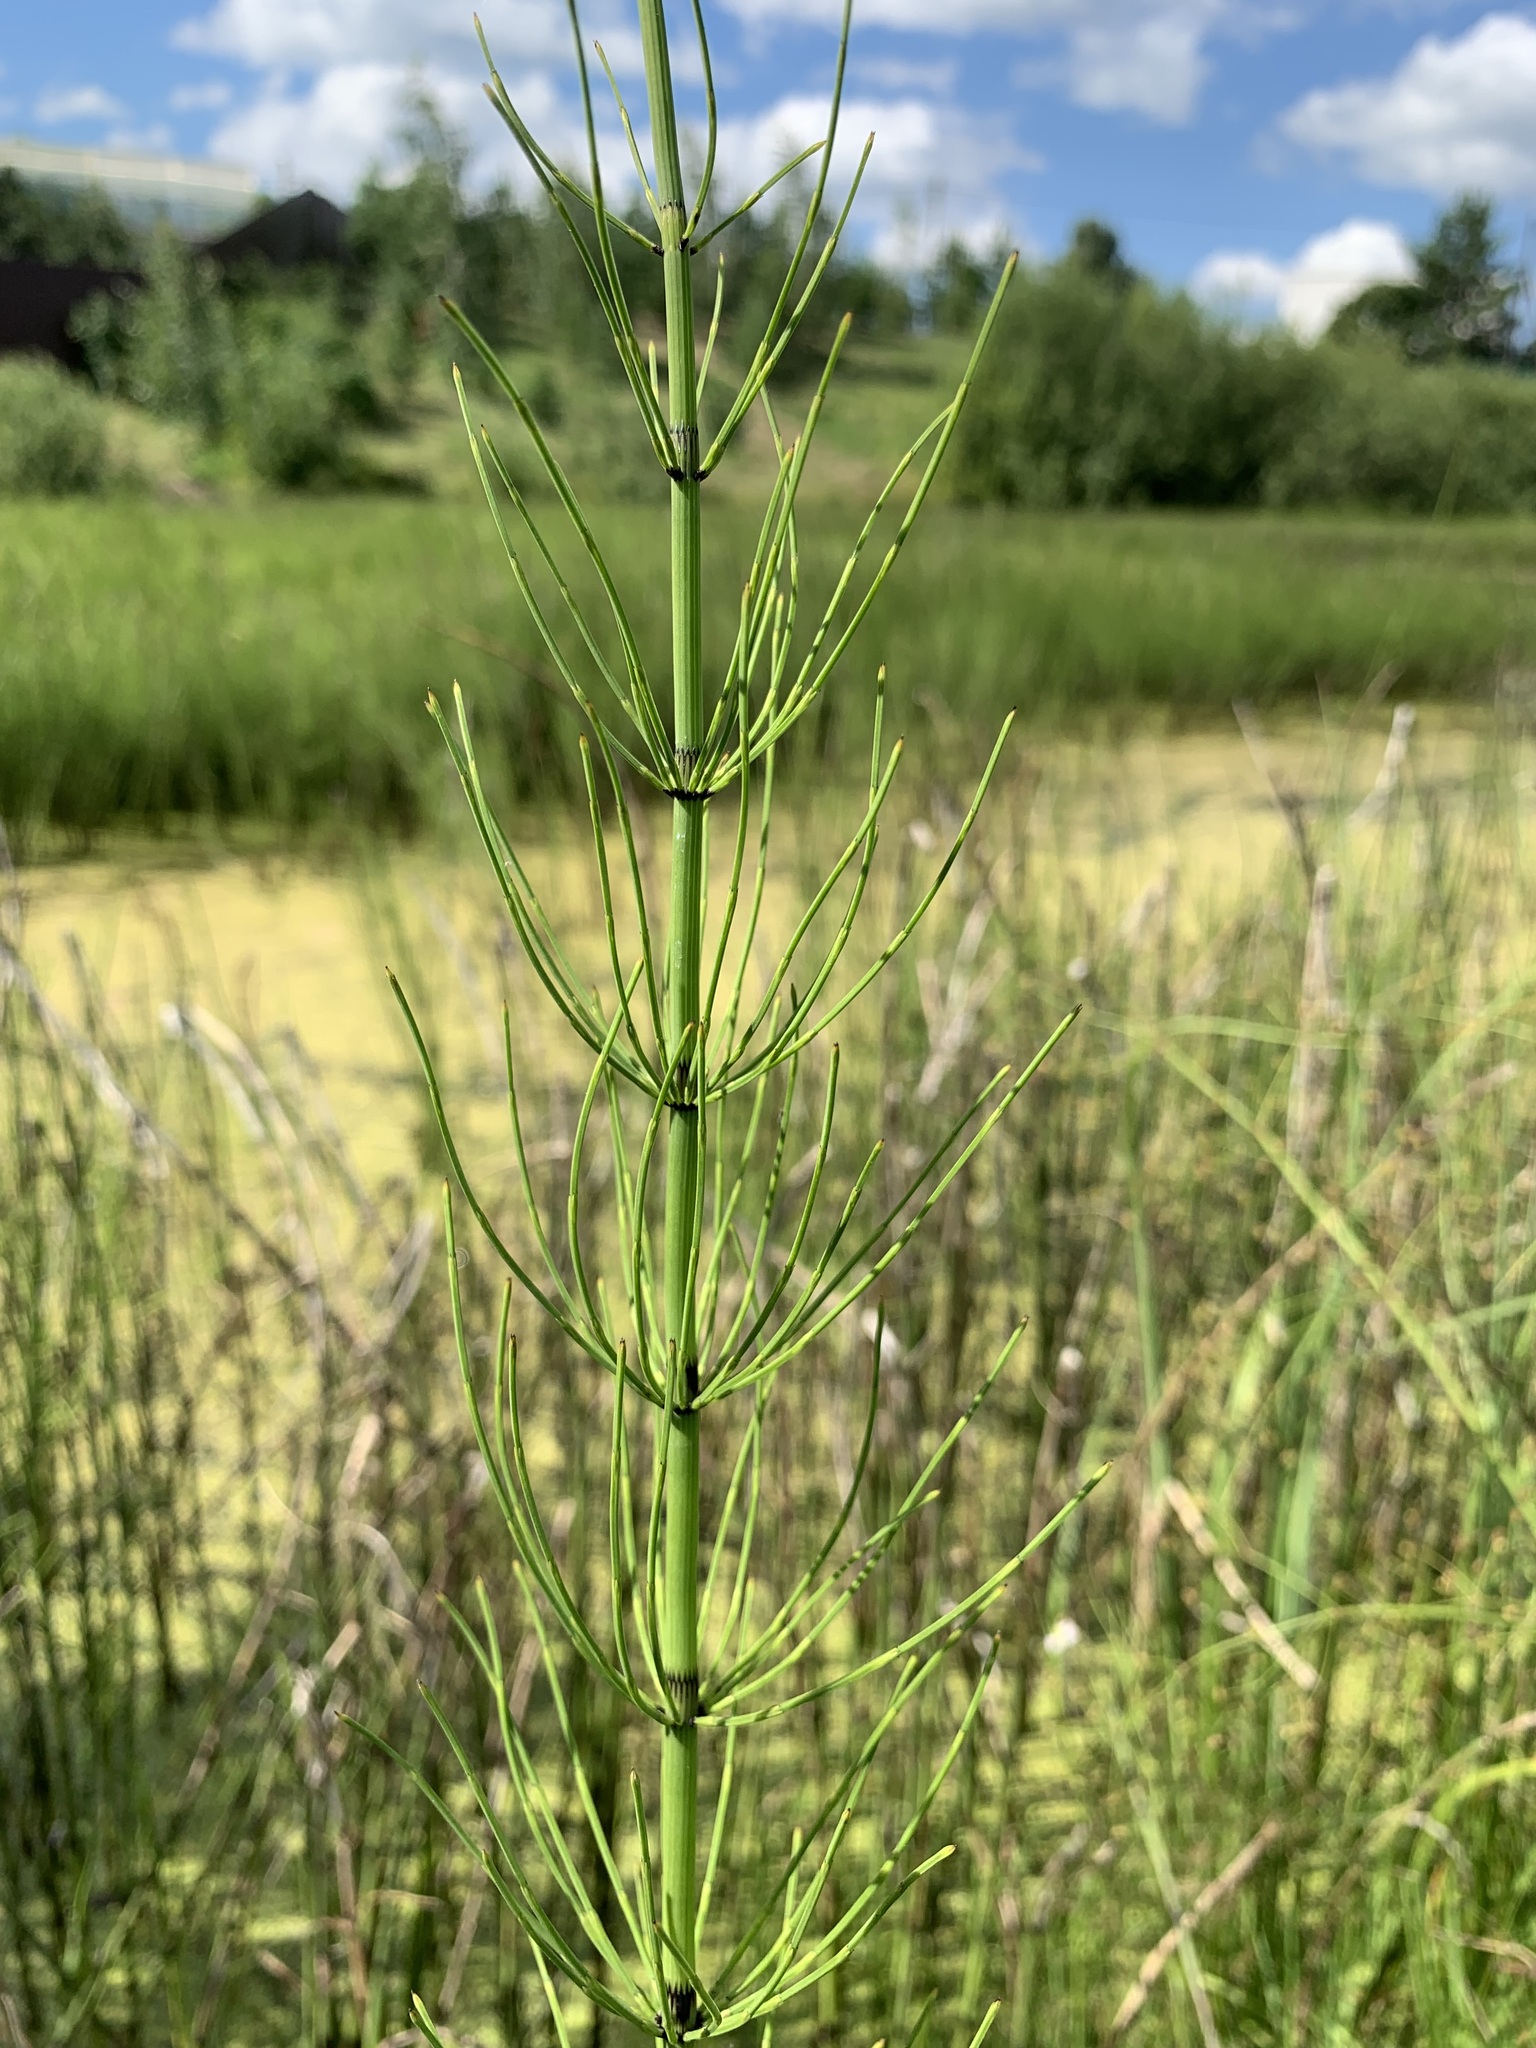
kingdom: Plantae
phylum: Tracheophyta
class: Polypodiopsida
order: Equisetales
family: Equisetaceae
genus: Equisetum
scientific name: Equisetum fluviatile
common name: Water horsetail
